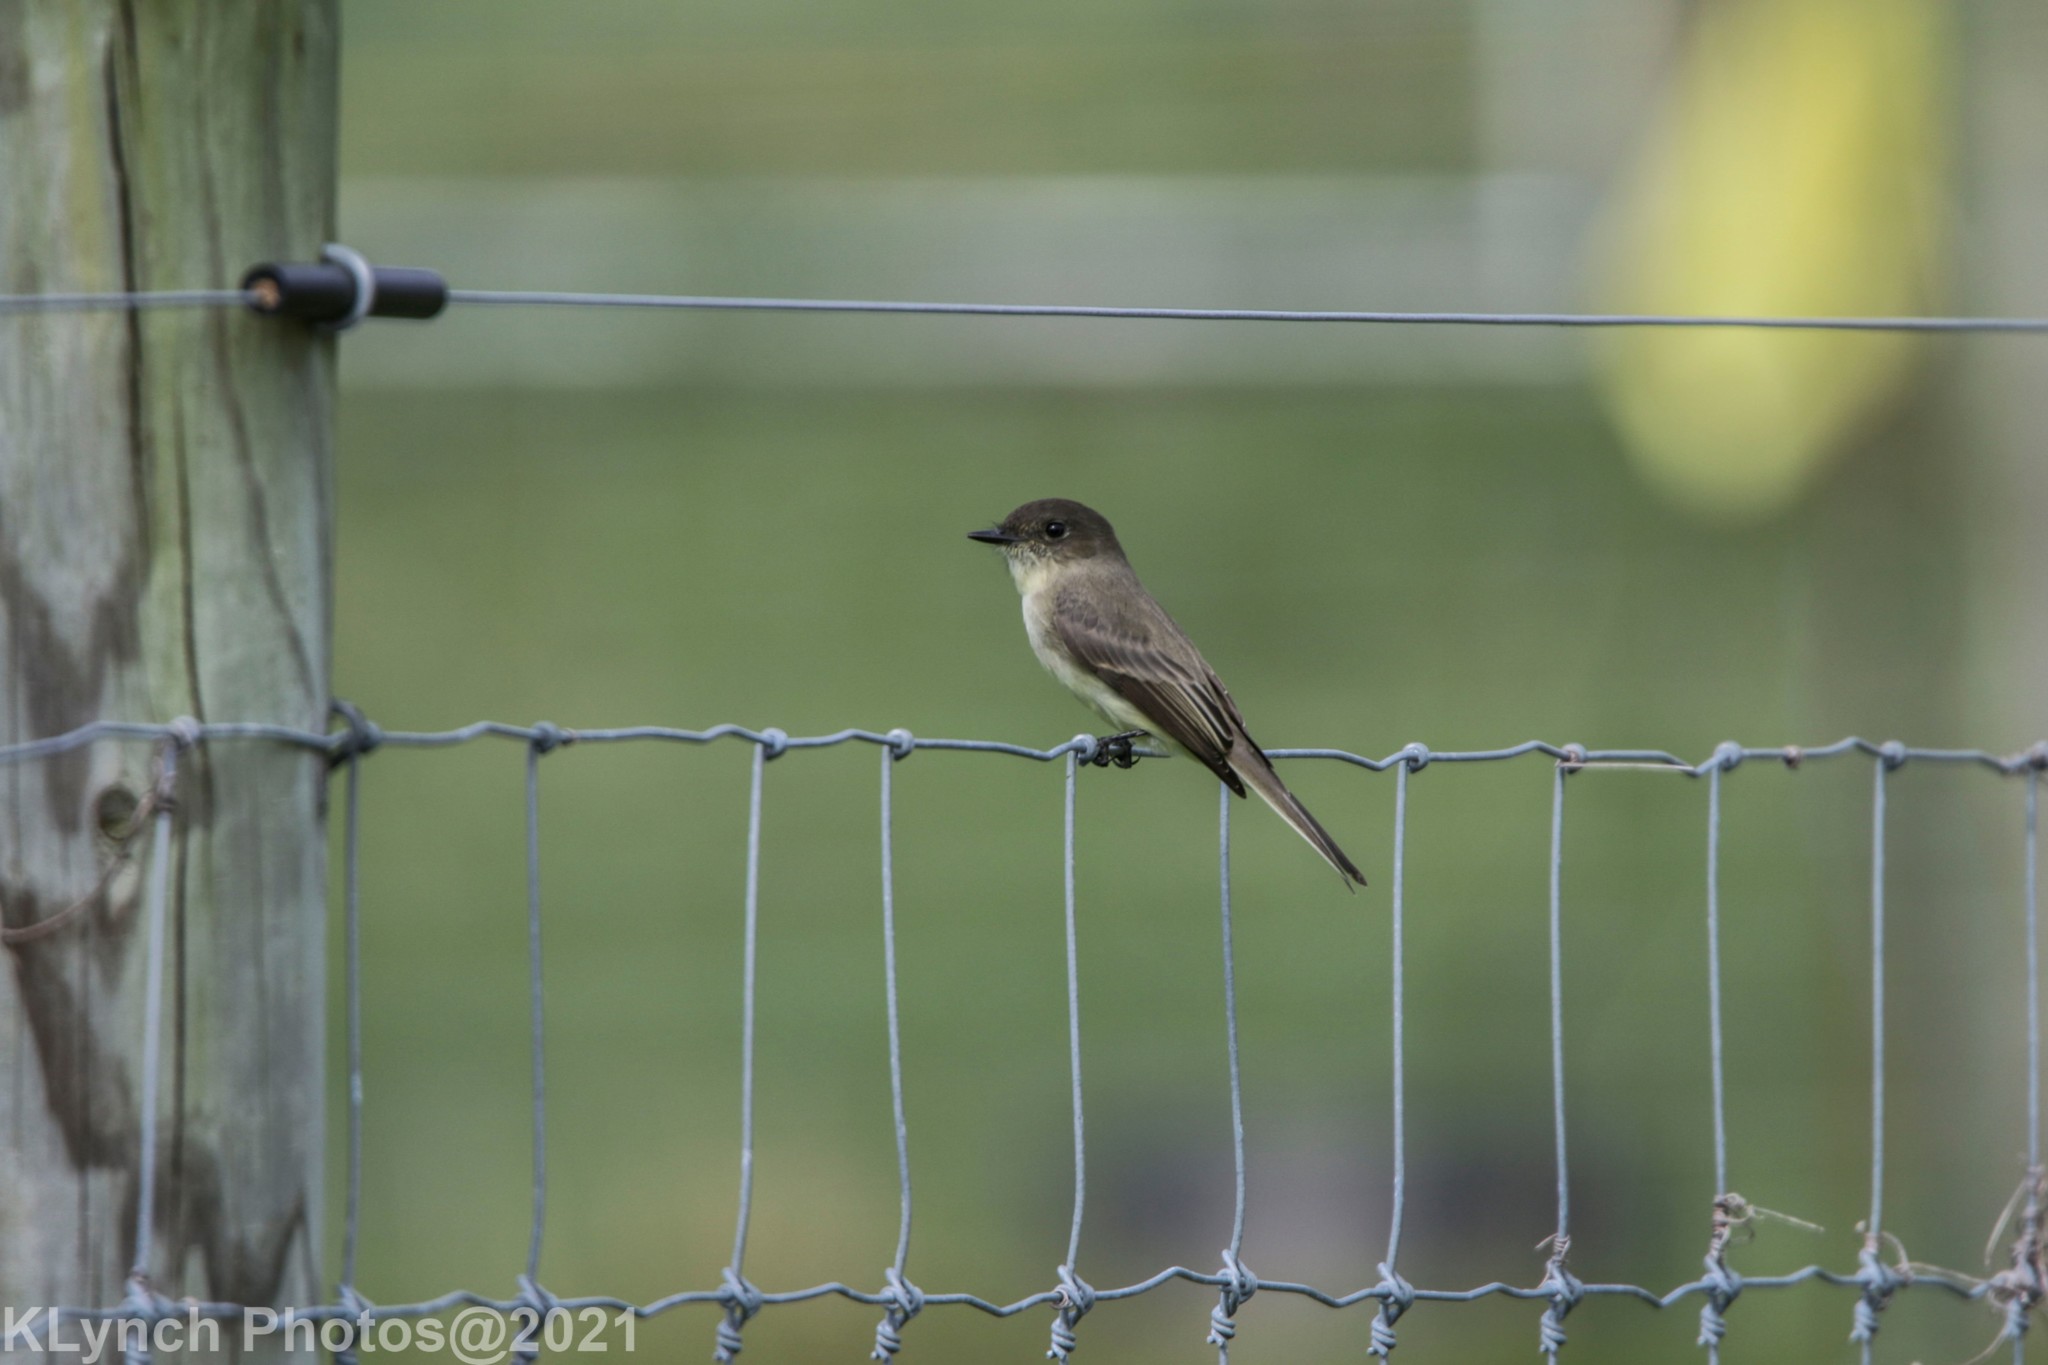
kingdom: Animalia
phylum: Chordata
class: Aves
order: Passeriformes
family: Tyrannidae
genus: Sayornis
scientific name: Sayornis phoebe
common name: Eastern phoebe
